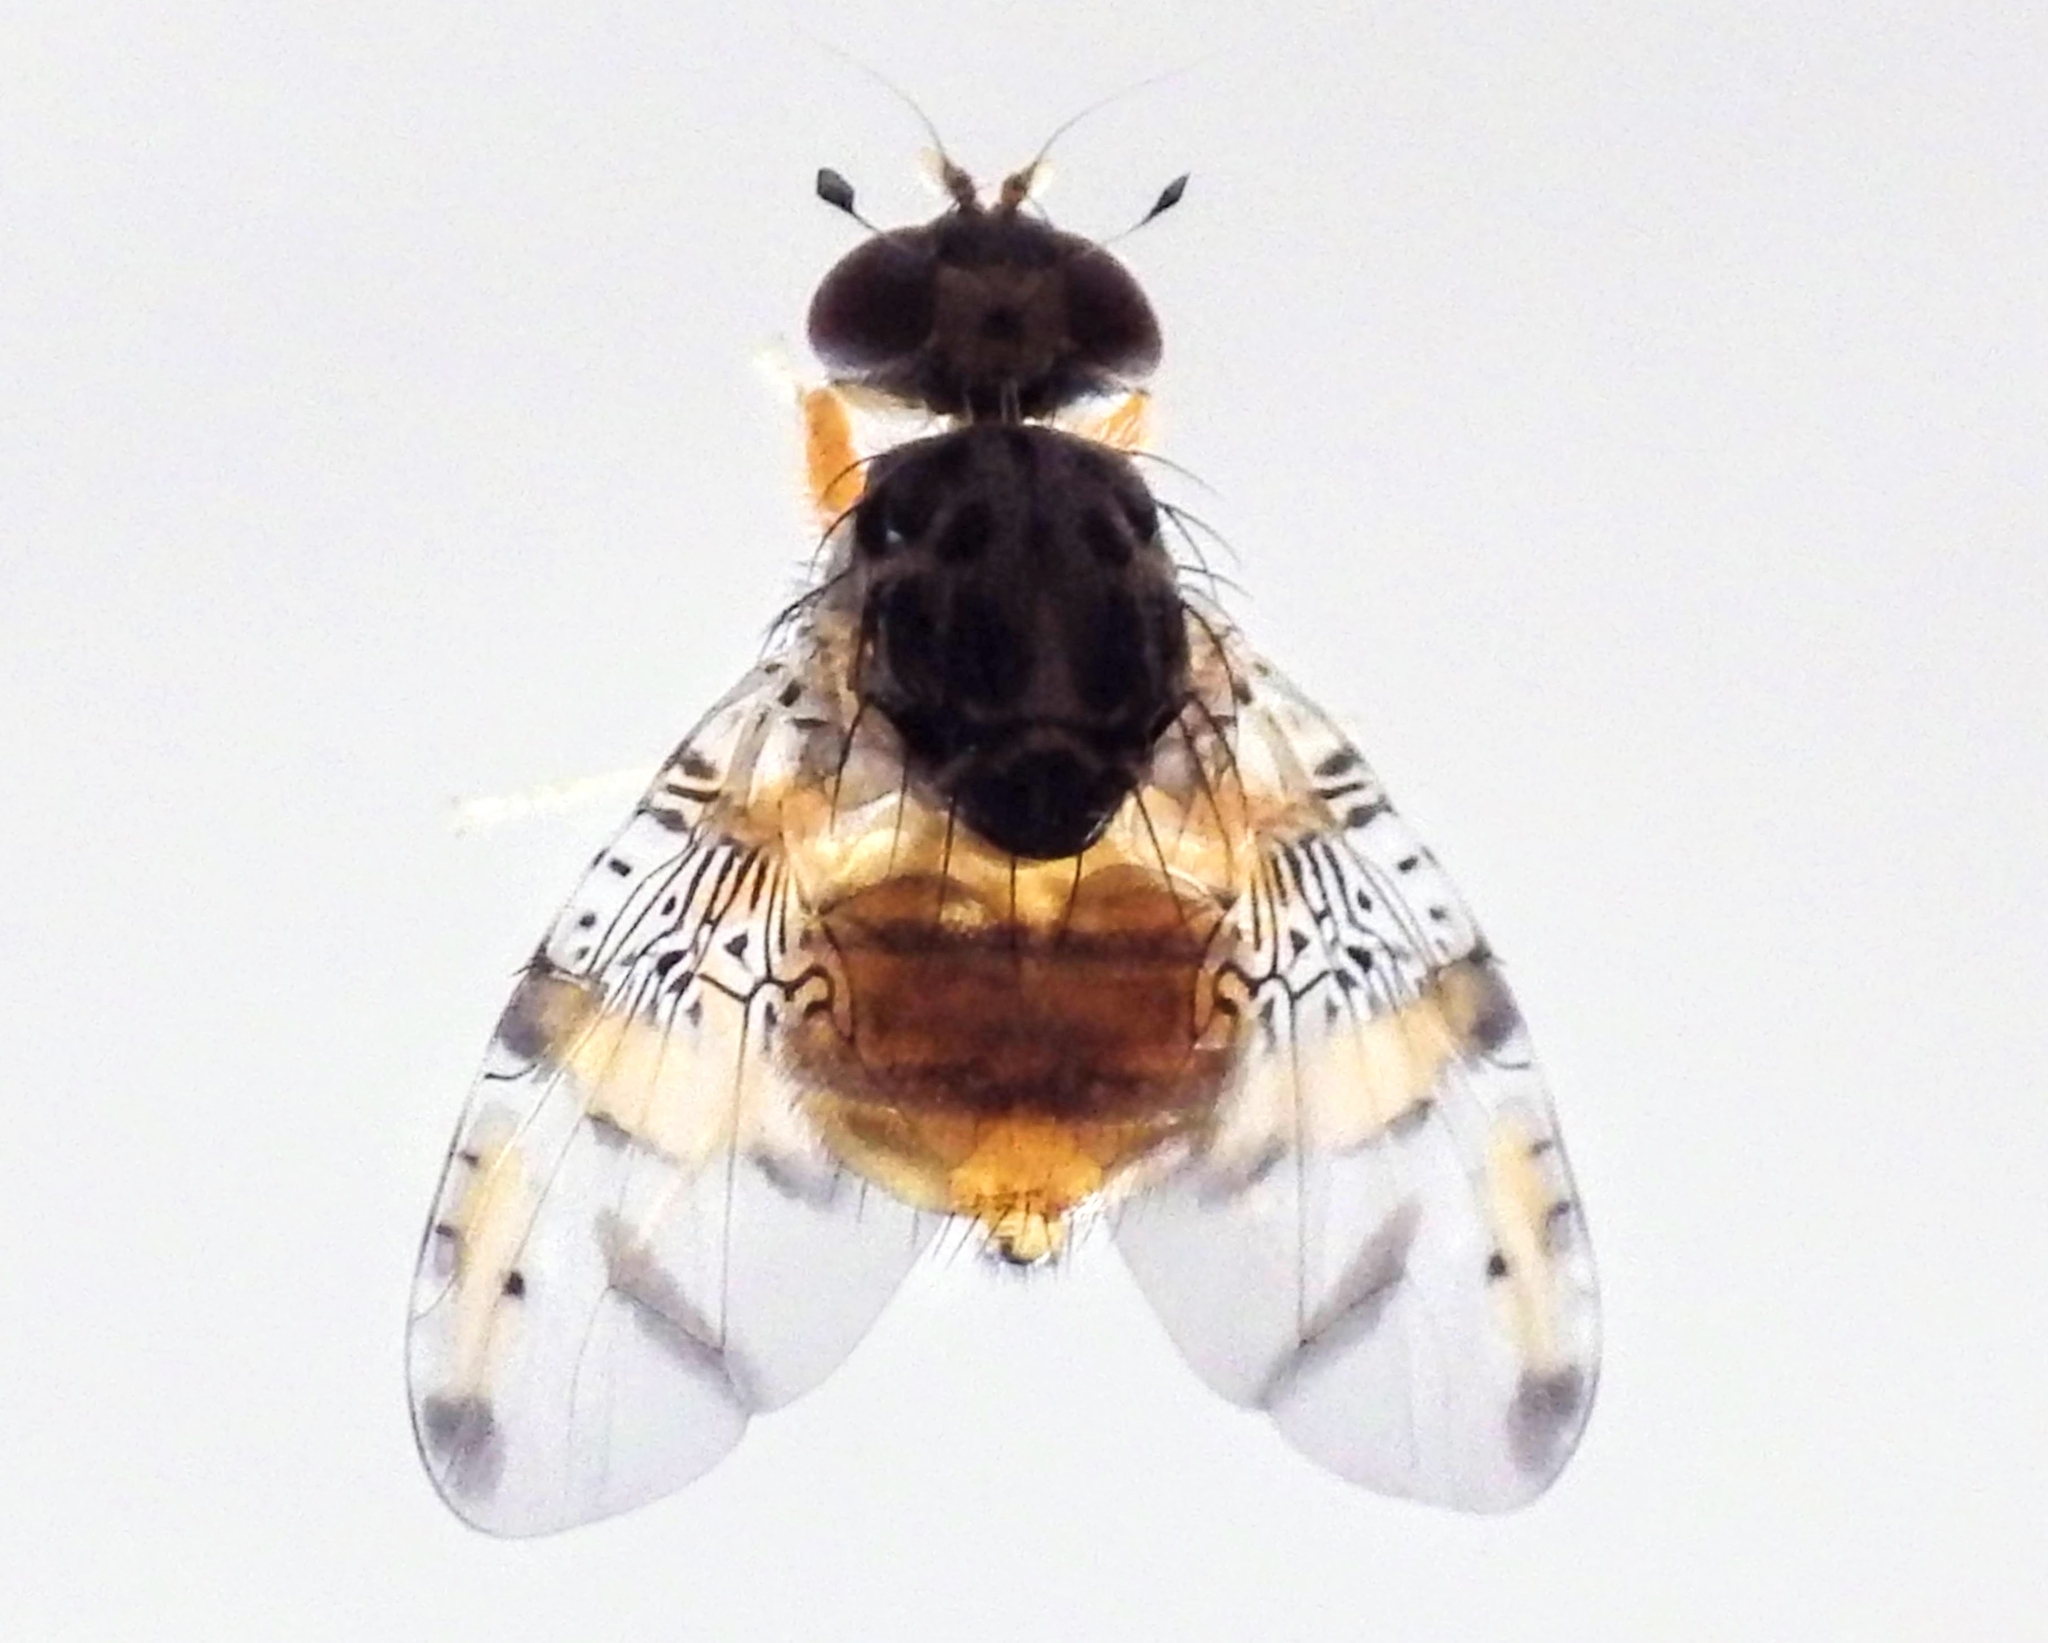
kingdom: Animalia
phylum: Arthropoda
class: Insecta
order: Diptera
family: Tephritidae
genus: Ceratitis
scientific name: Ceratitis capitata
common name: Mediterranean fruit fly
